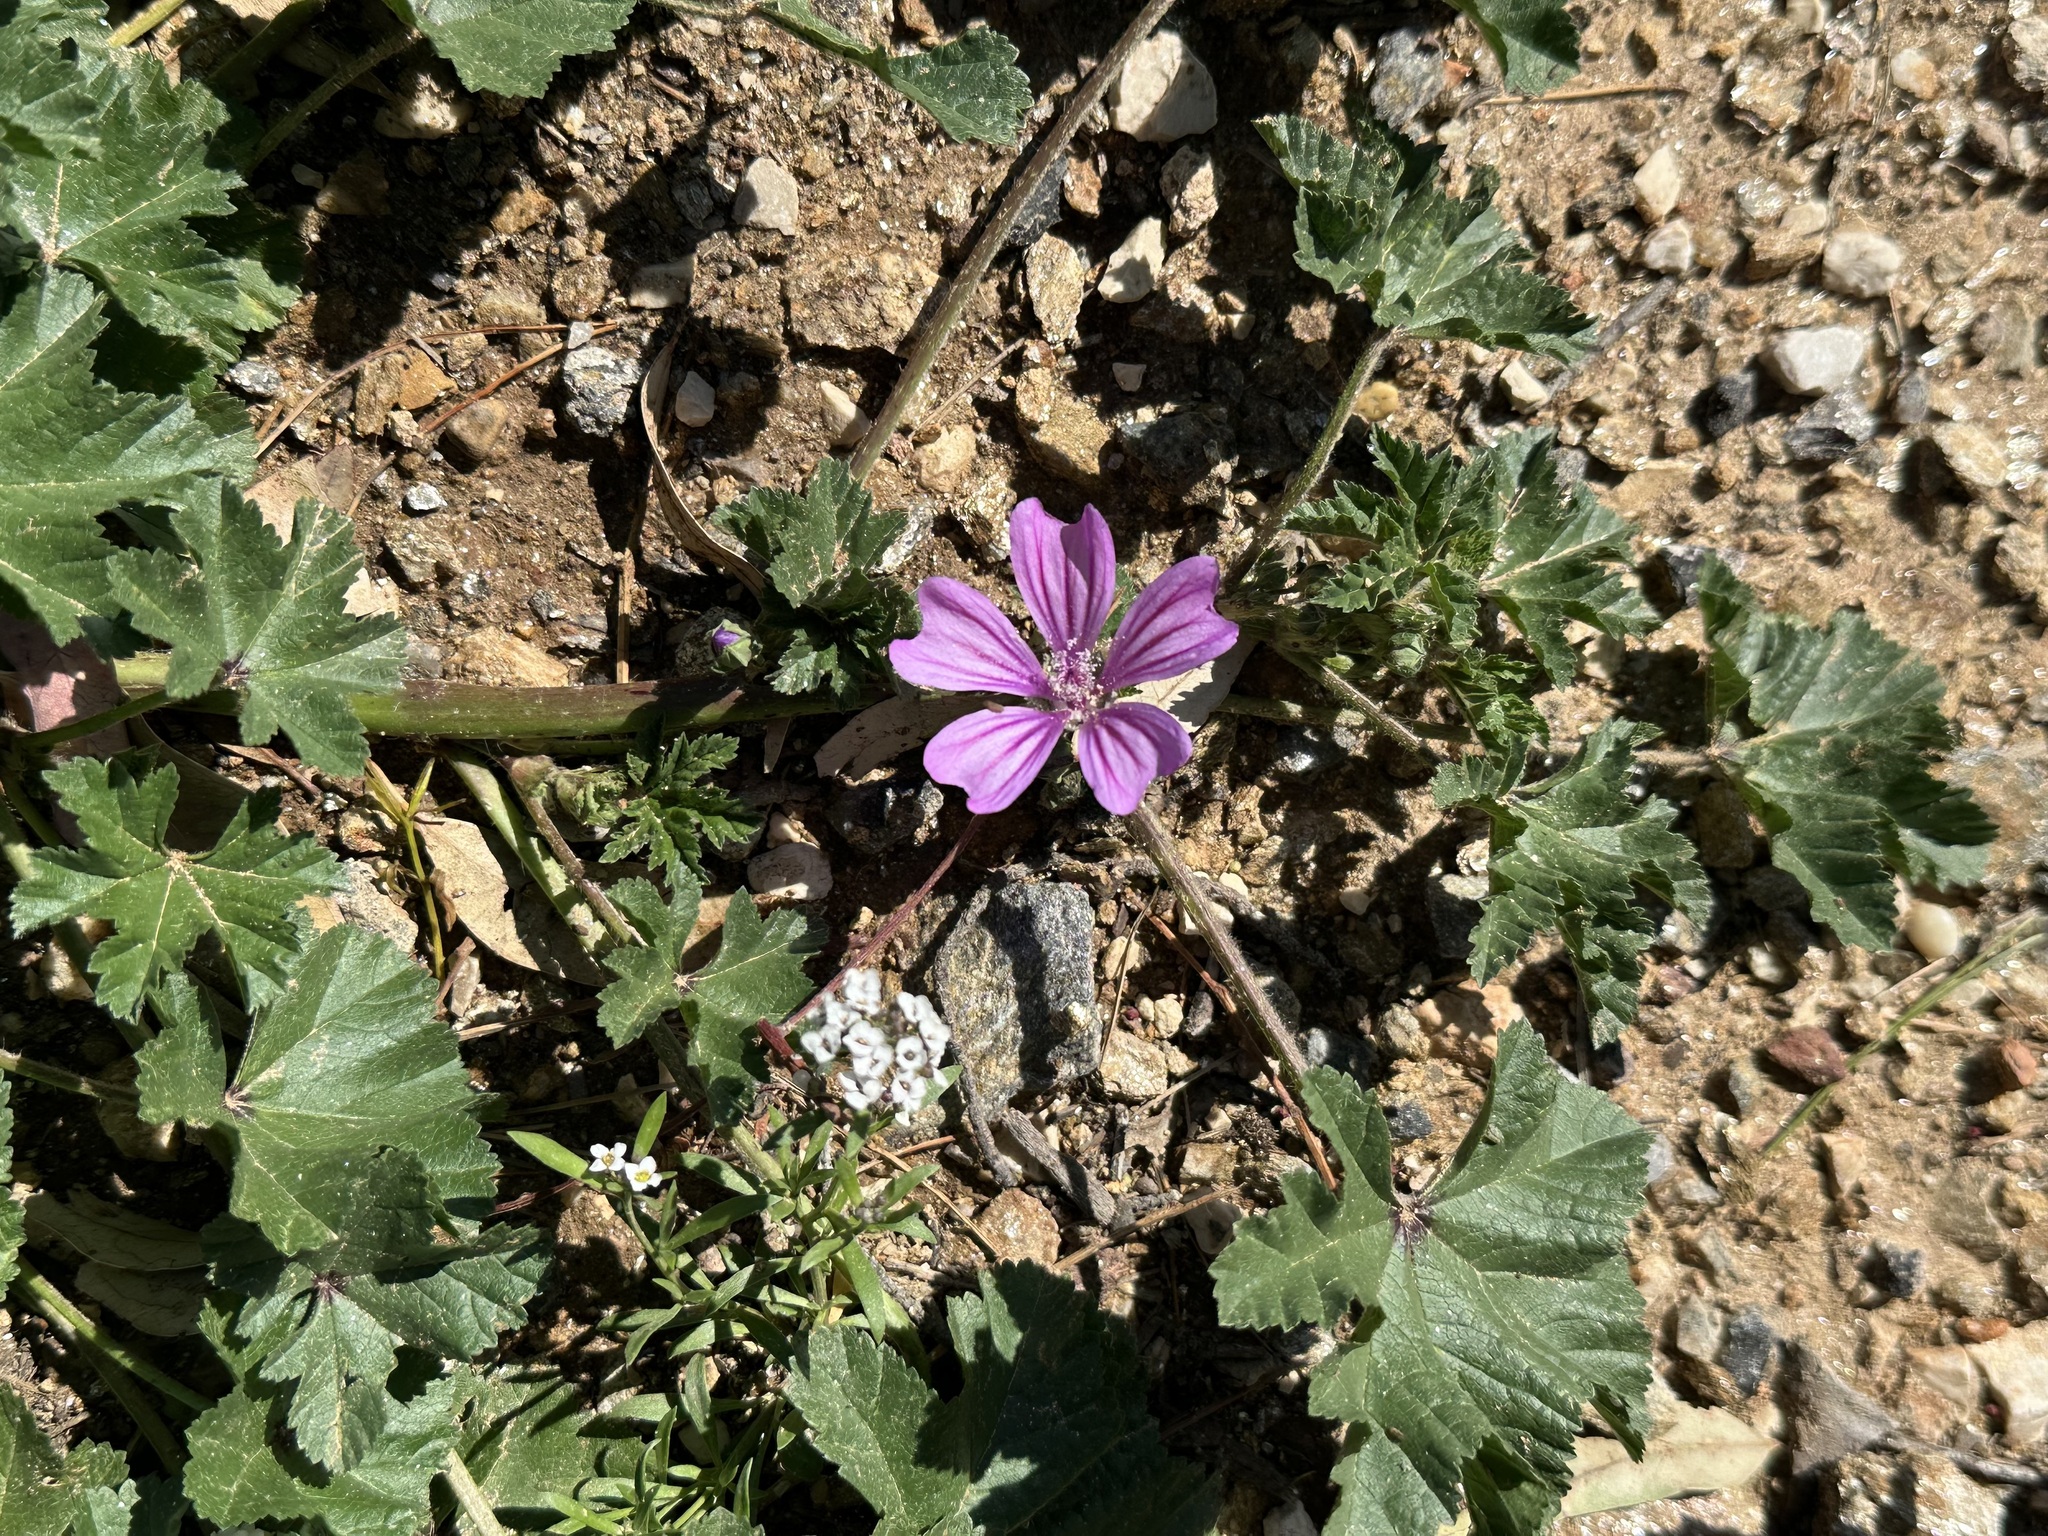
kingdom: Plantae
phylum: Tracheophyta
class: Magnoliopsida
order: Malvales
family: Malvaceae
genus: Malva
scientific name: Malva sylvestris
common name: Common mallow
